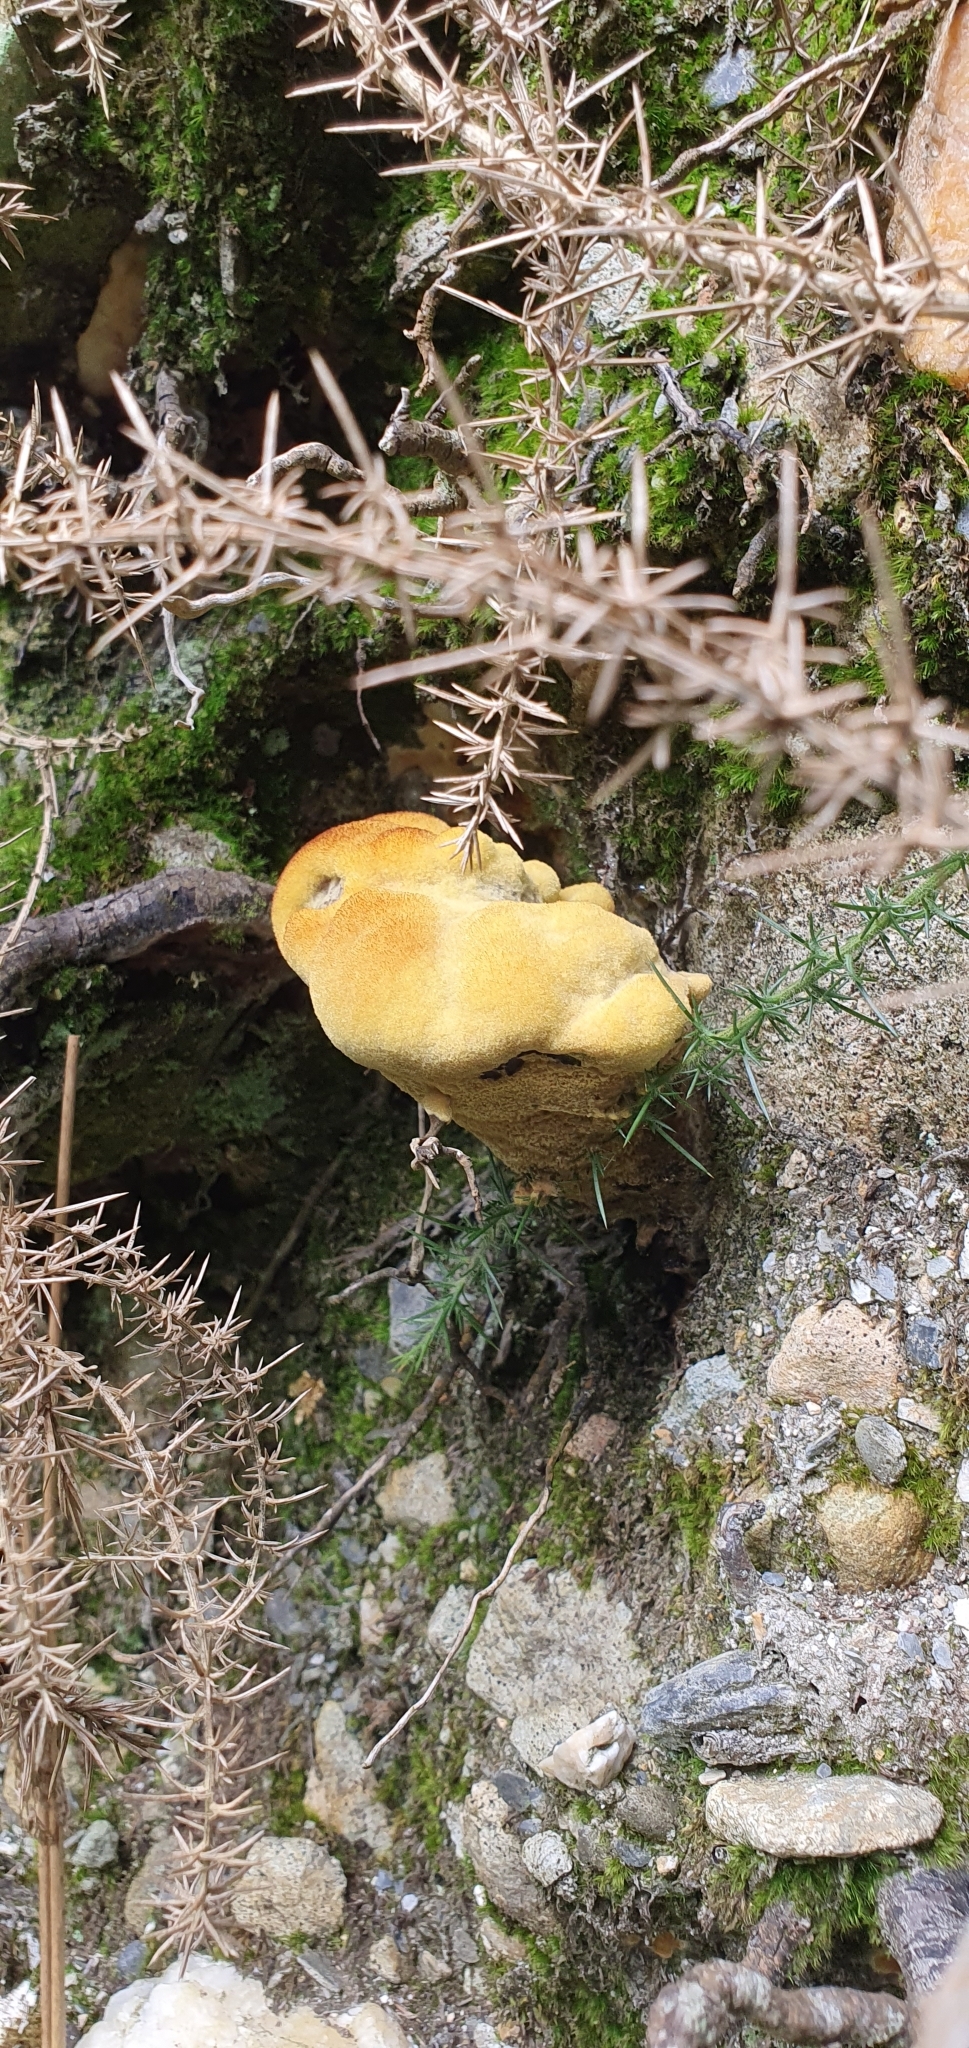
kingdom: Fungi
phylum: Basidiomycota
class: Agaricomycetes
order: Polyporales
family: Laetiporaceae
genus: Phaeolus
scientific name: Phaeolus schweinitzii
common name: Dyer's mazegill
